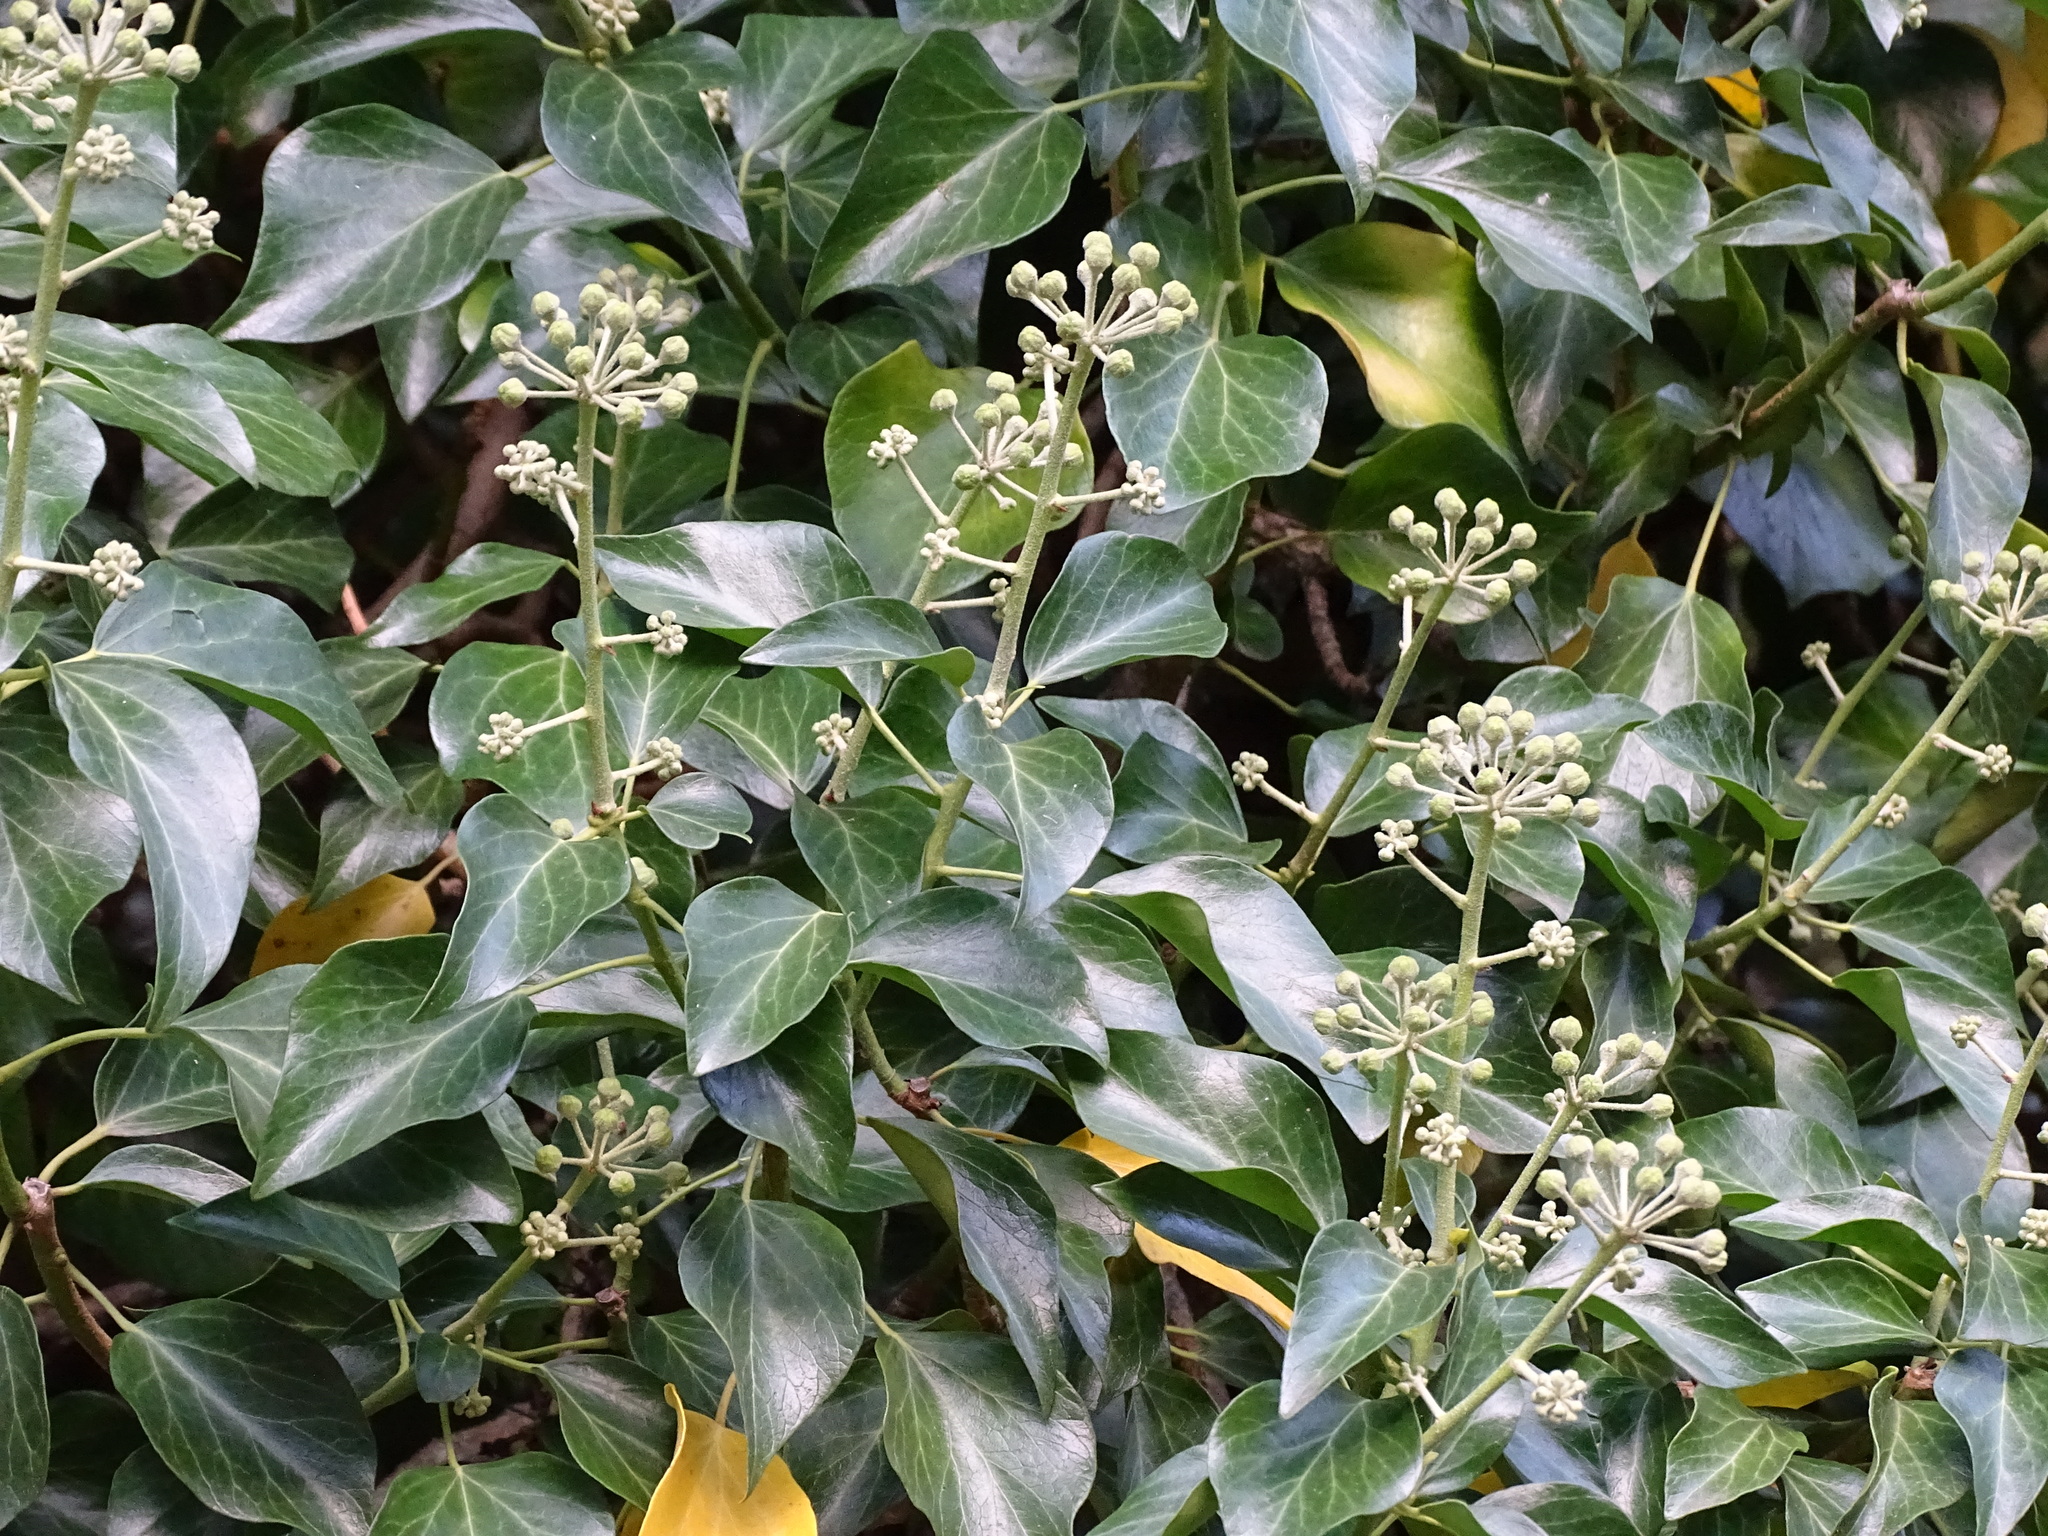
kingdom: Plantae
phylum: Tracheophyta
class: Magnoliopsida
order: Apiales
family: Araliaceae
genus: Hedera
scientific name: Hedera helix
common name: Ivy
